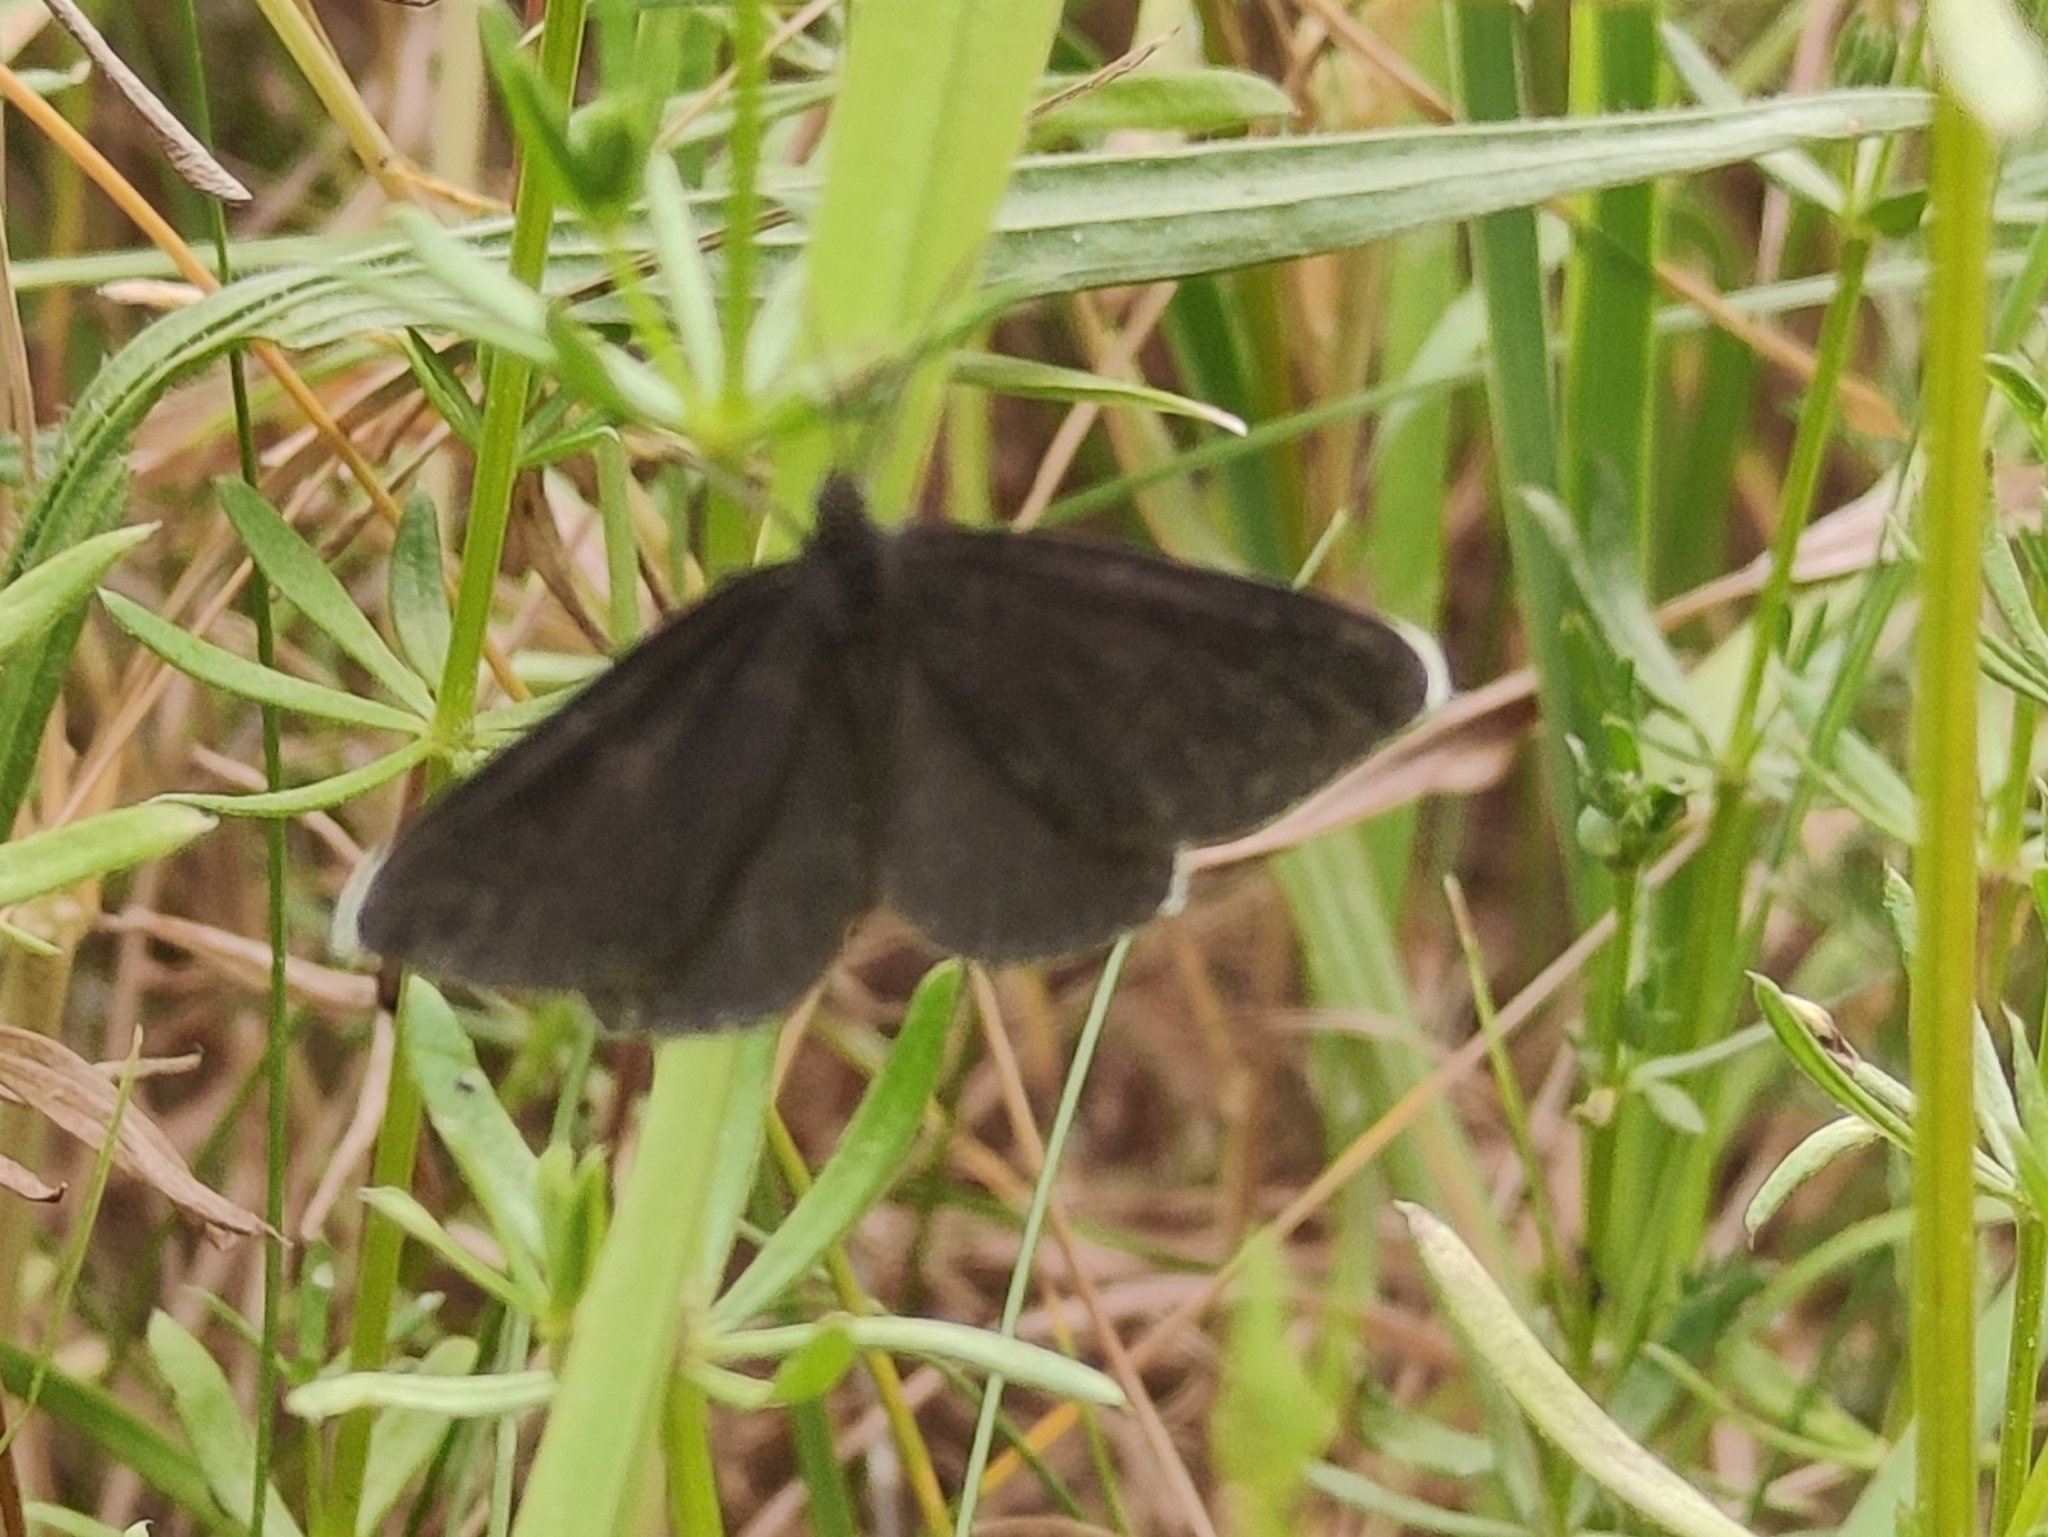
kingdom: Animalia
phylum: Arthropoda
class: Insecta
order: Lepidoptera
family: Geometridae
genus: Odezia
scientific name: Odezia atrata
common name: Chimney sweeper
